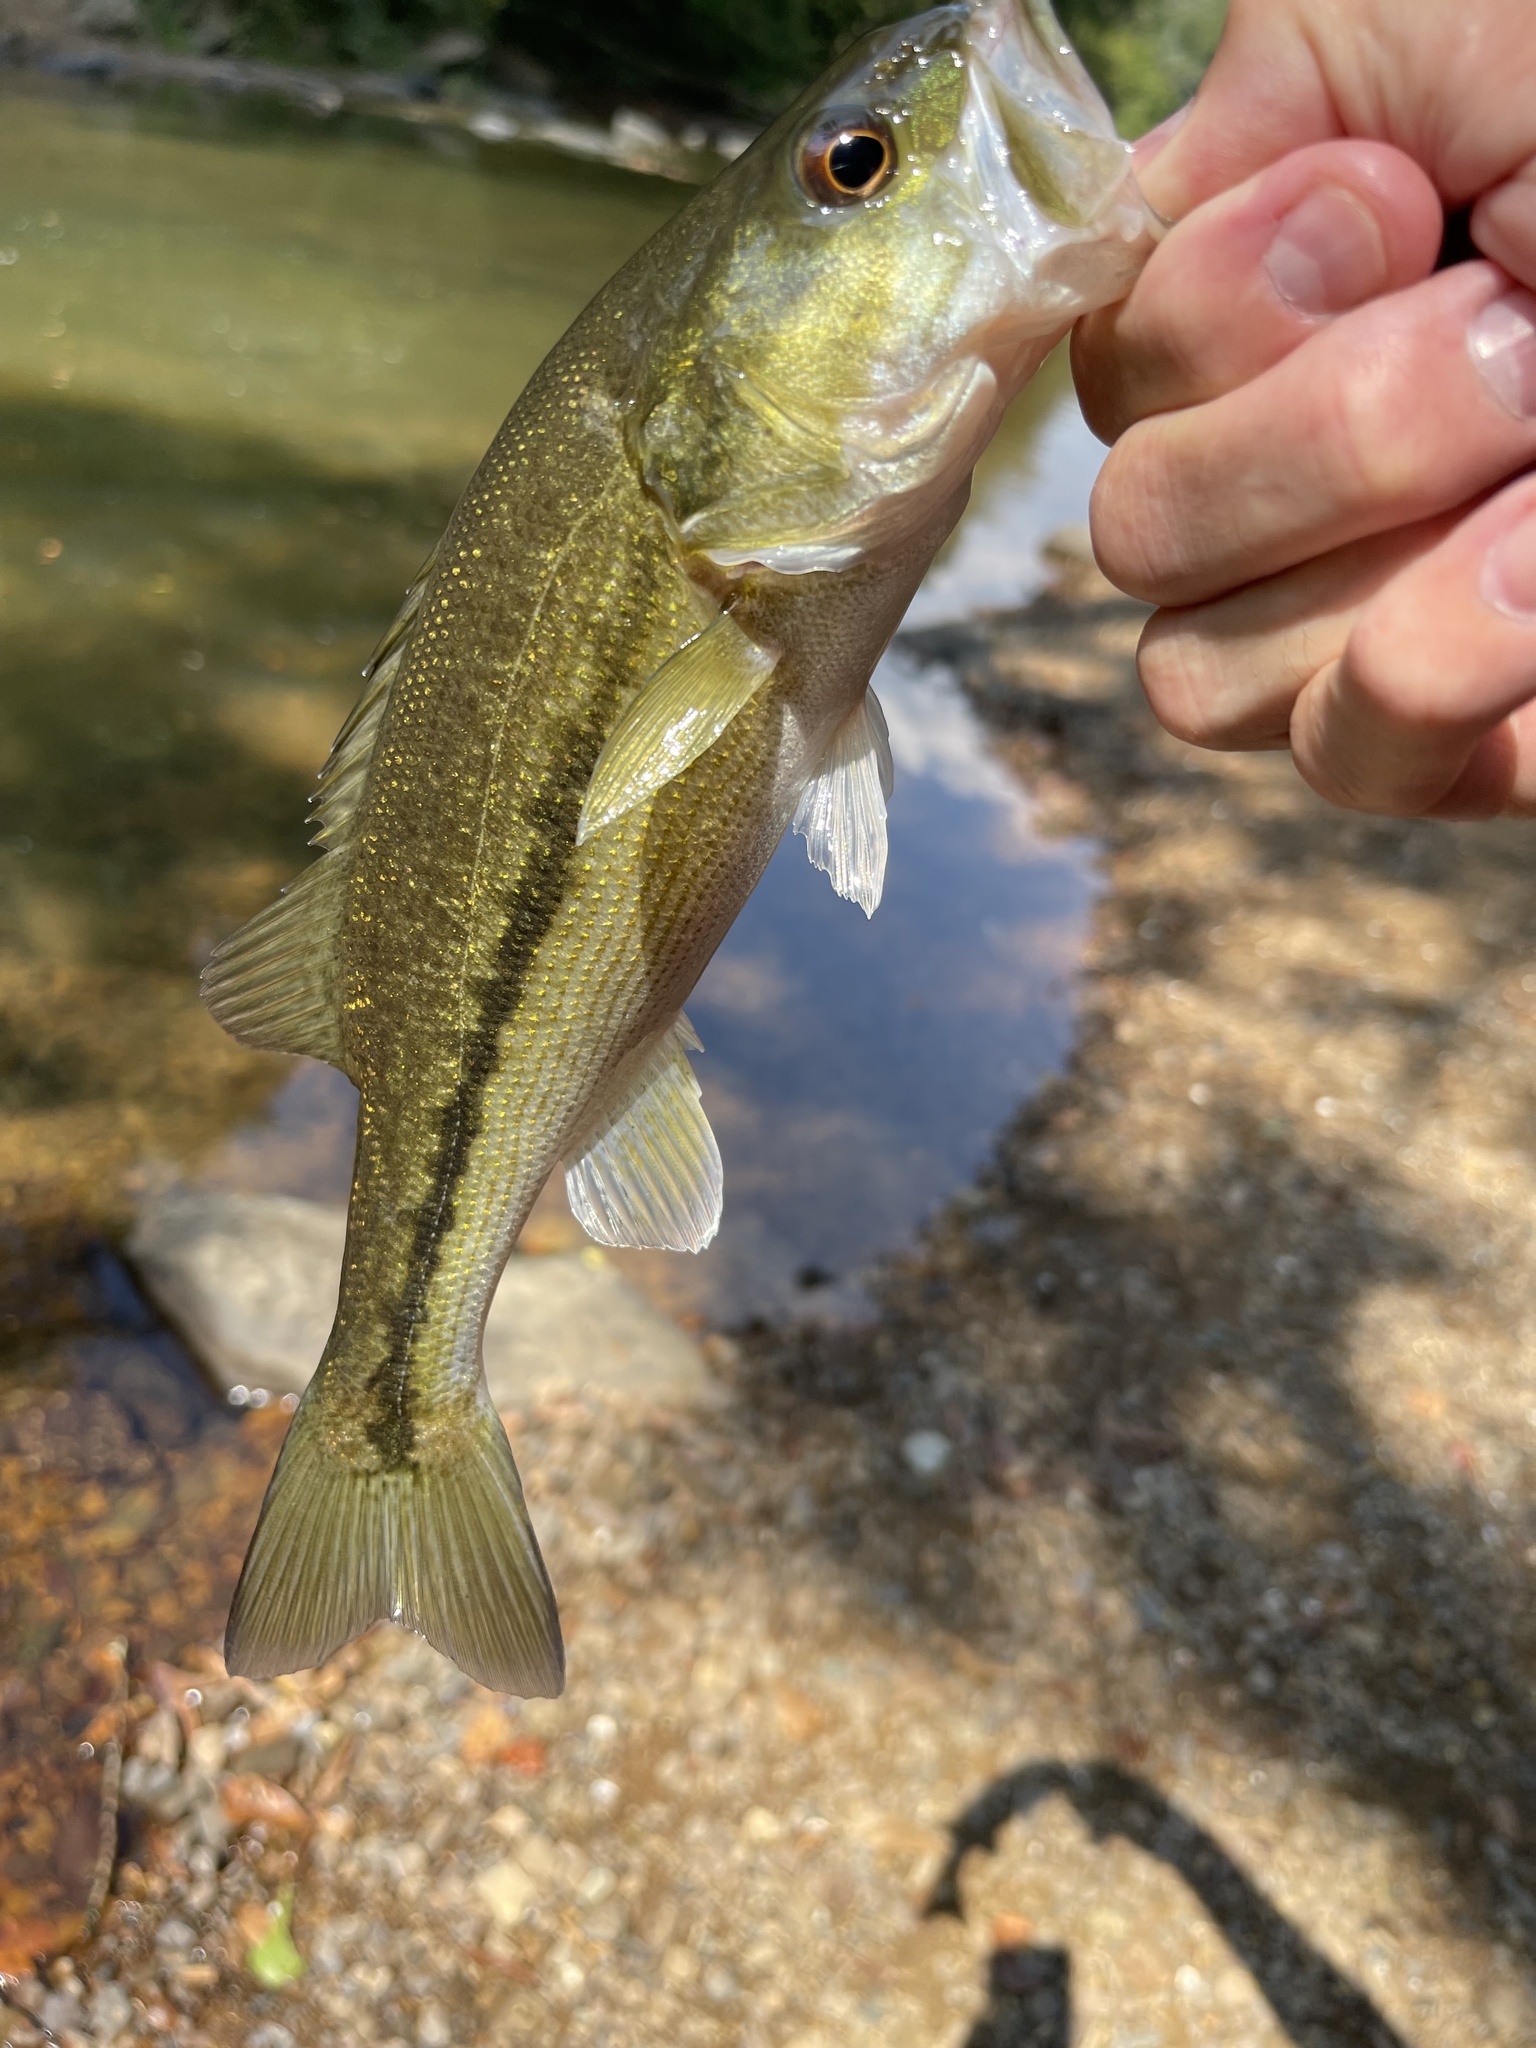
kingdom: Animalia
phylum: Chordata
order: Perciformes
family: Centrarchidae
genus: Micropterus
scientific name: Micropterus henshalli
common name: Alabama bass
